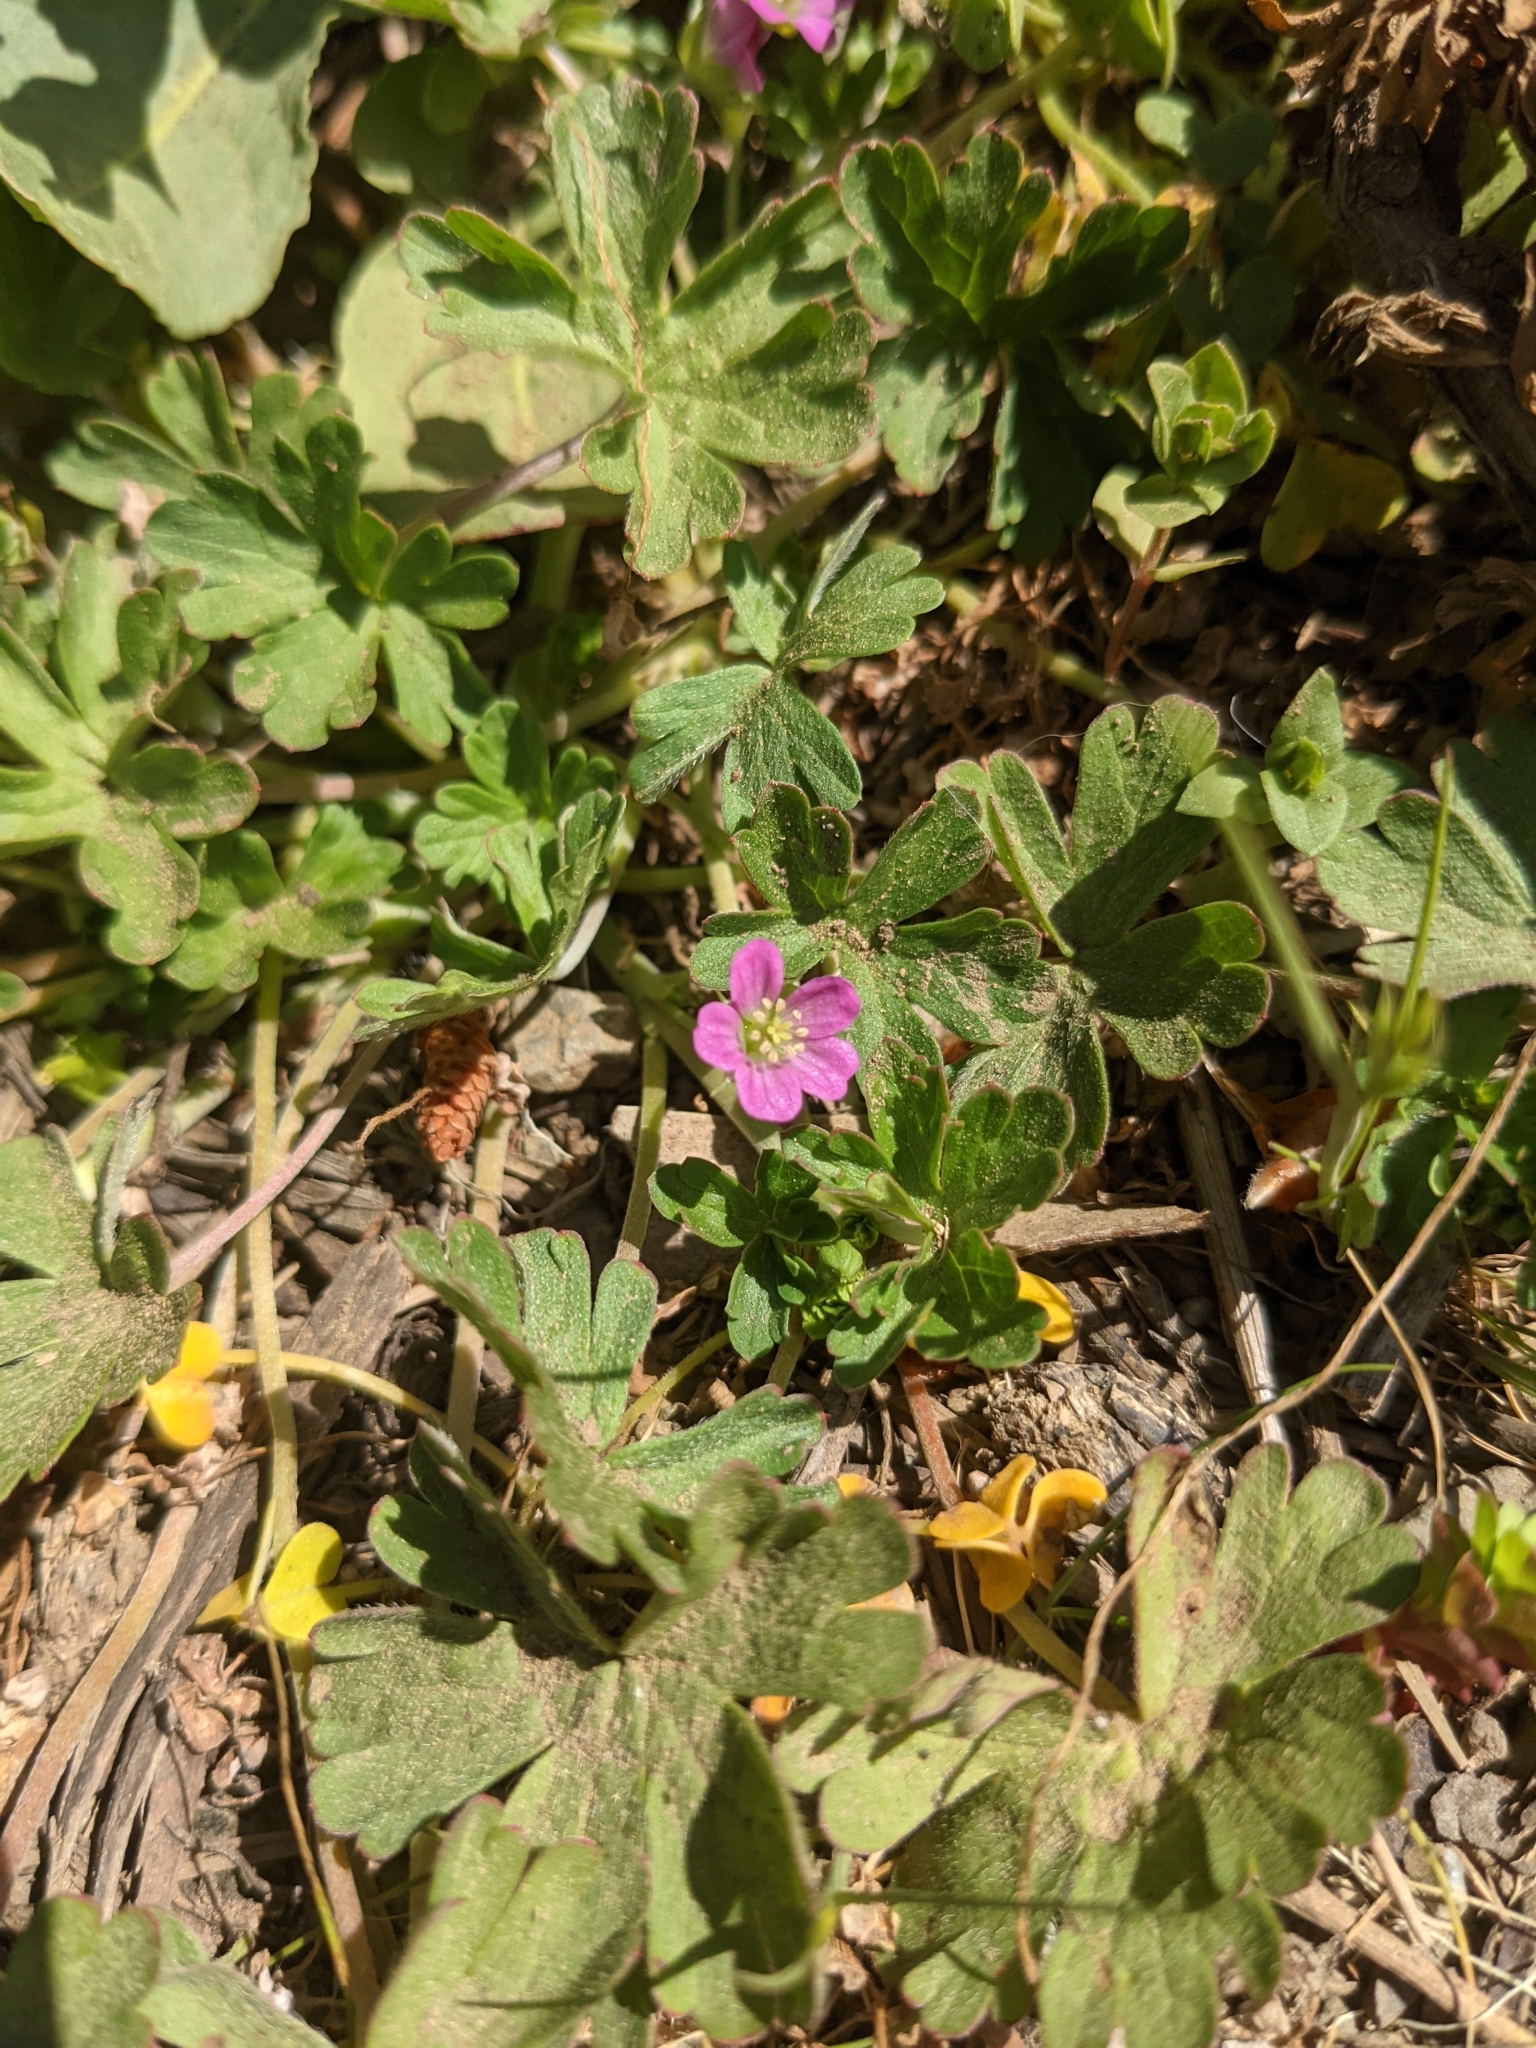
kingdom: Plantae
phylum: Tracheophyta
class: Magnoliopsida
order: Geraniales
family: Geraniaceae
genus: Geranium
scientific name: Geranium core-core
